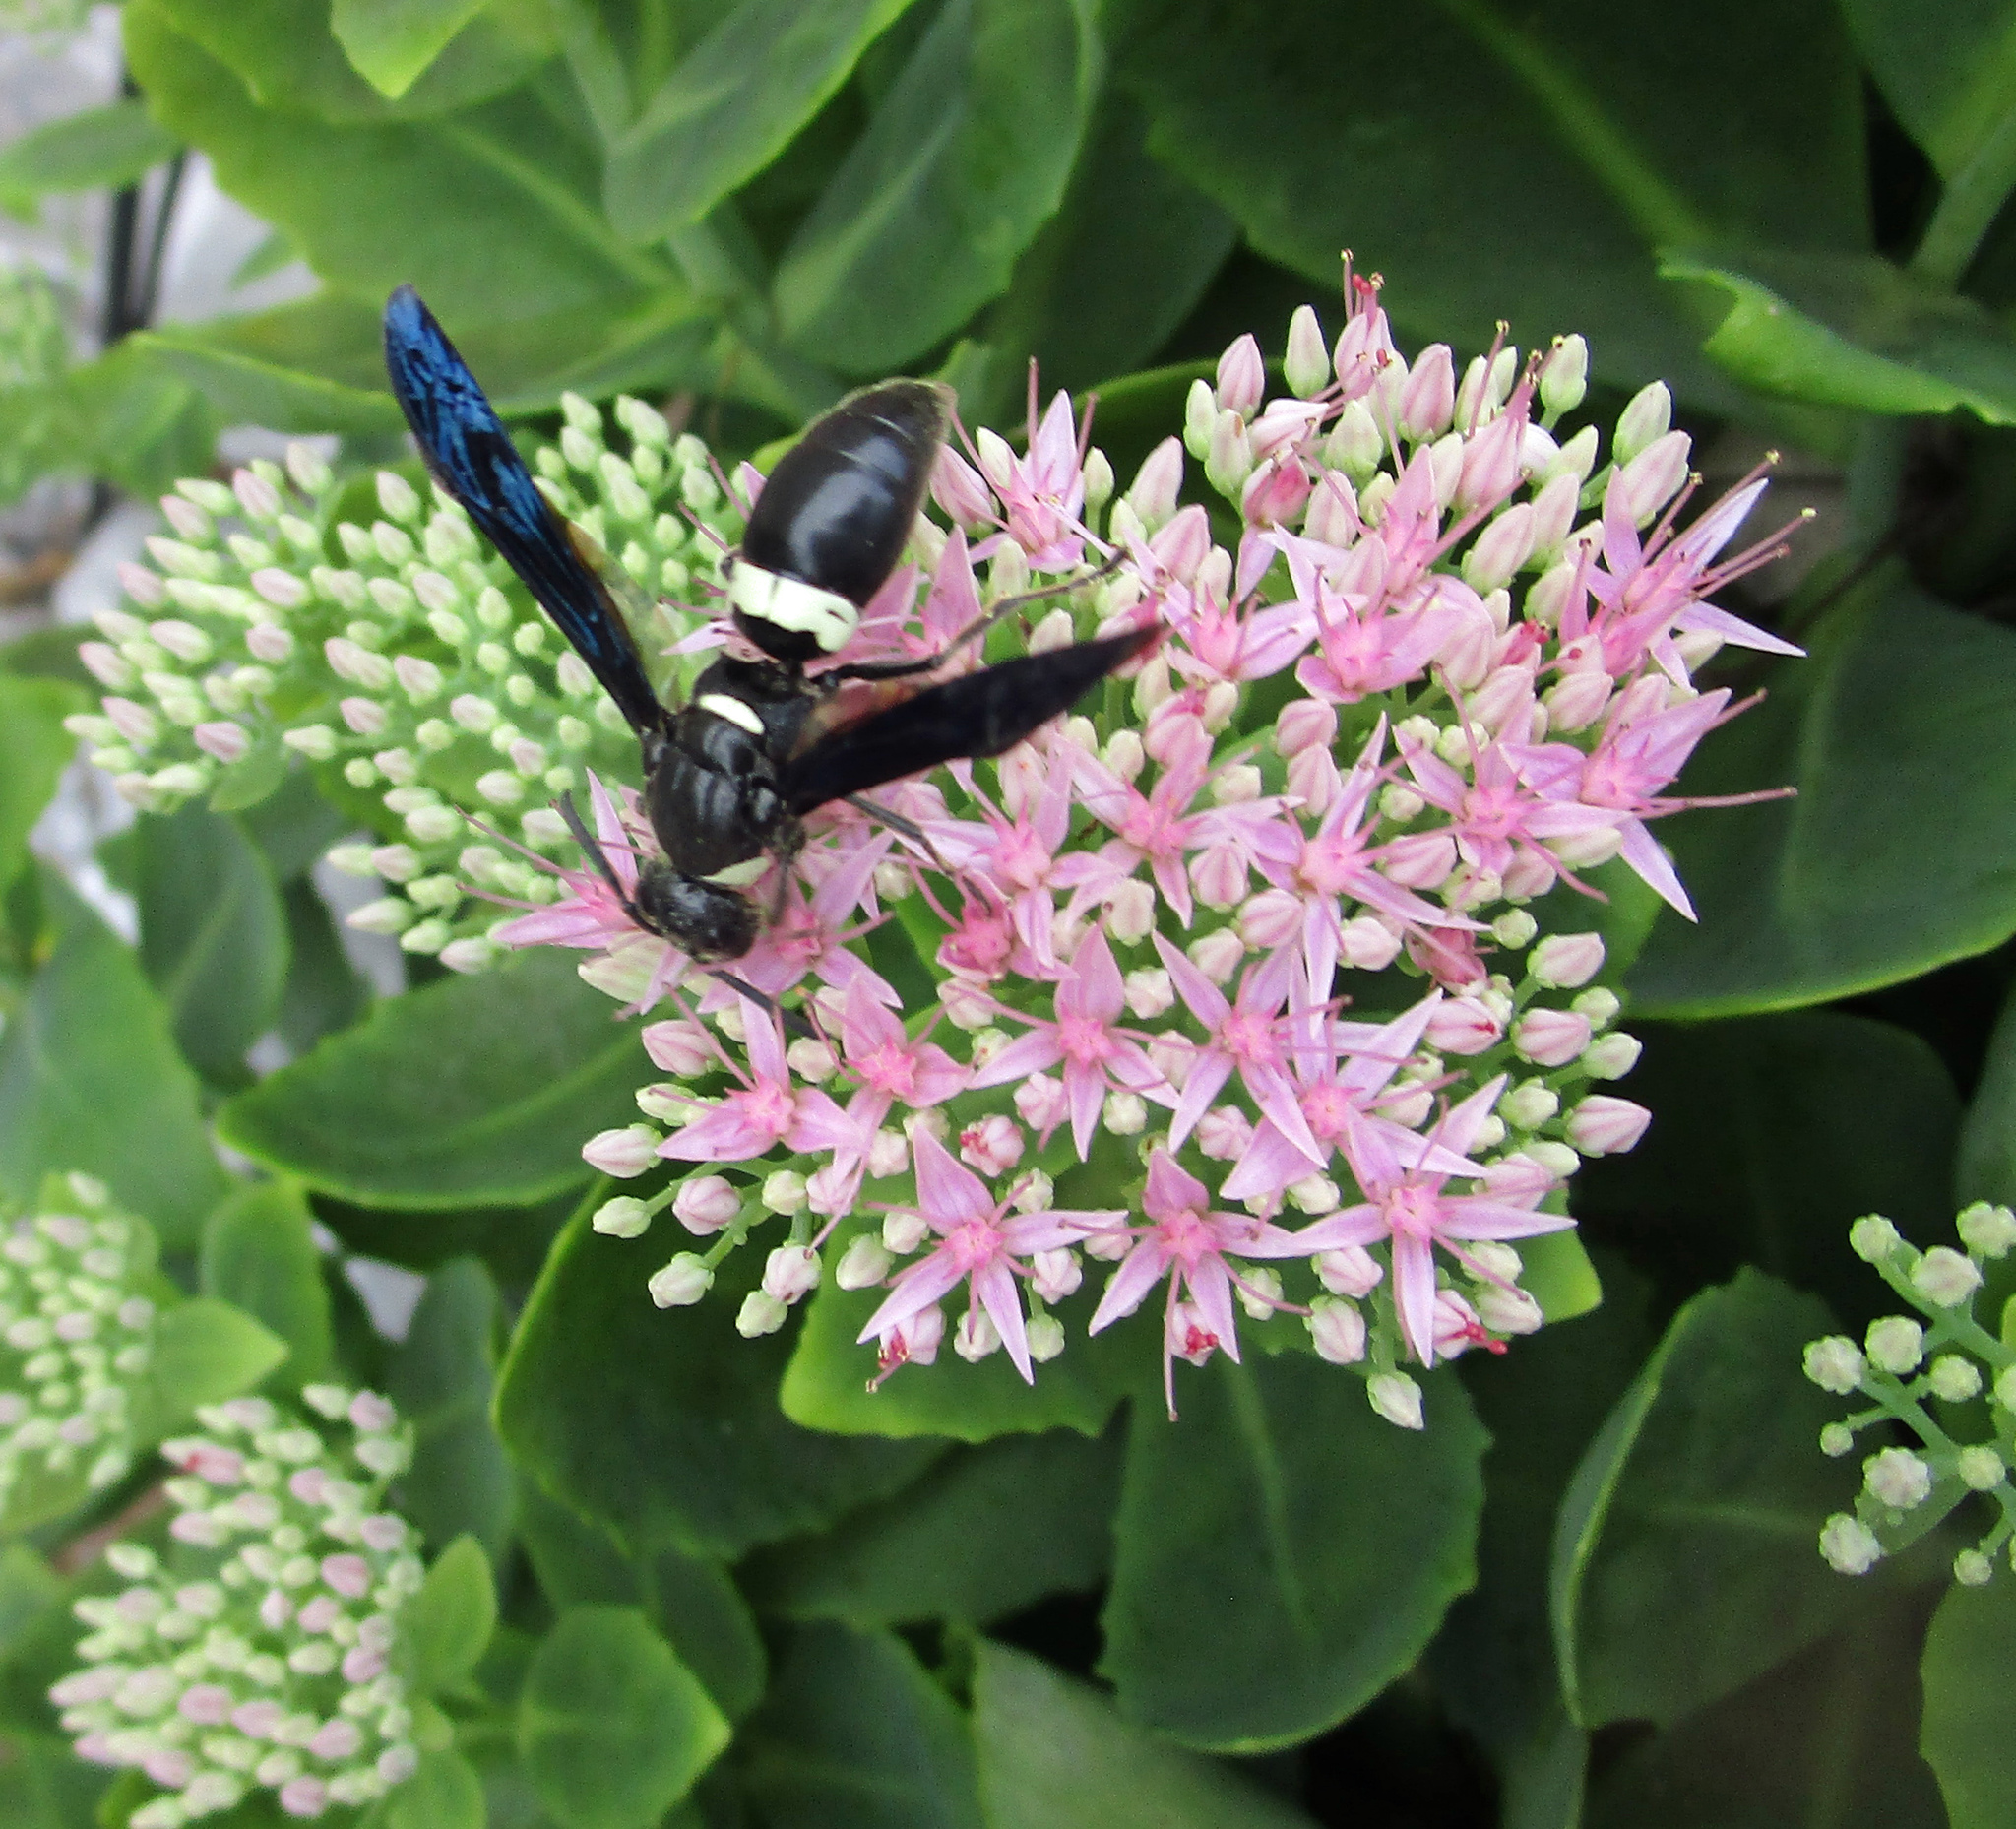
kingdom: Animalia
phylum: Arthropoda
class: Insecta
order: Hymenoptera
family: Eumenidae
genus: Monobia
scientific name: Monobia quadridens
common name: Four-toothed mason wasp
